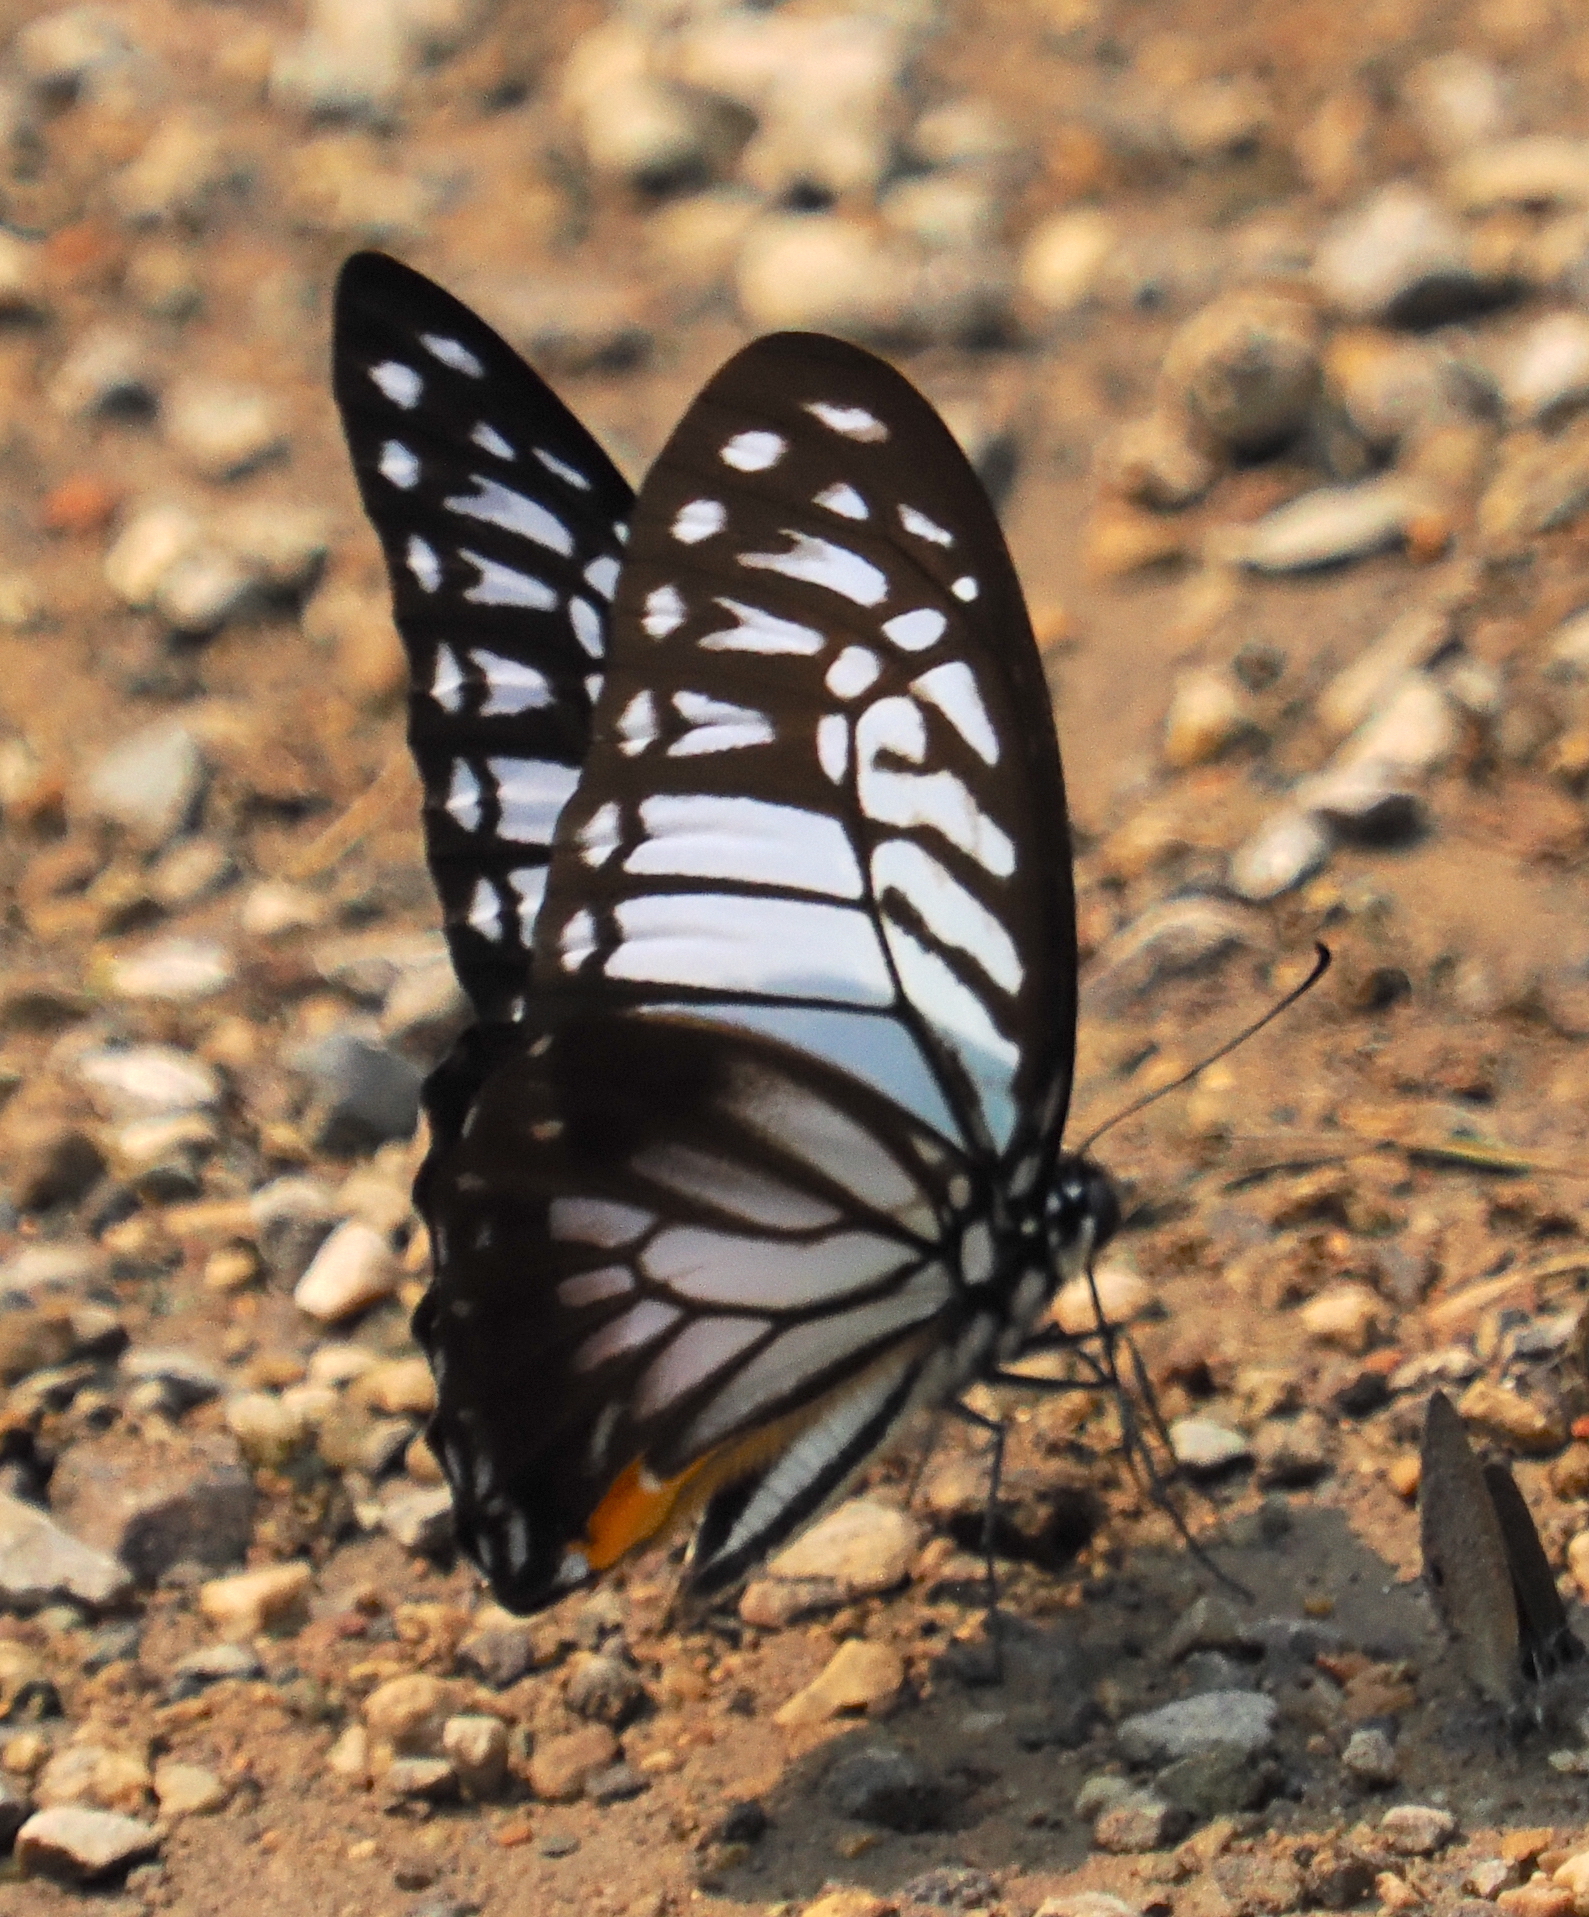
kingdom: Animalia
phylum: Arthropoda
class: Insecta
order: Lepidoptera
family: Papilionidae
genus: Graphium
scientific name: Graphium xenocles
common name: Great zebra
